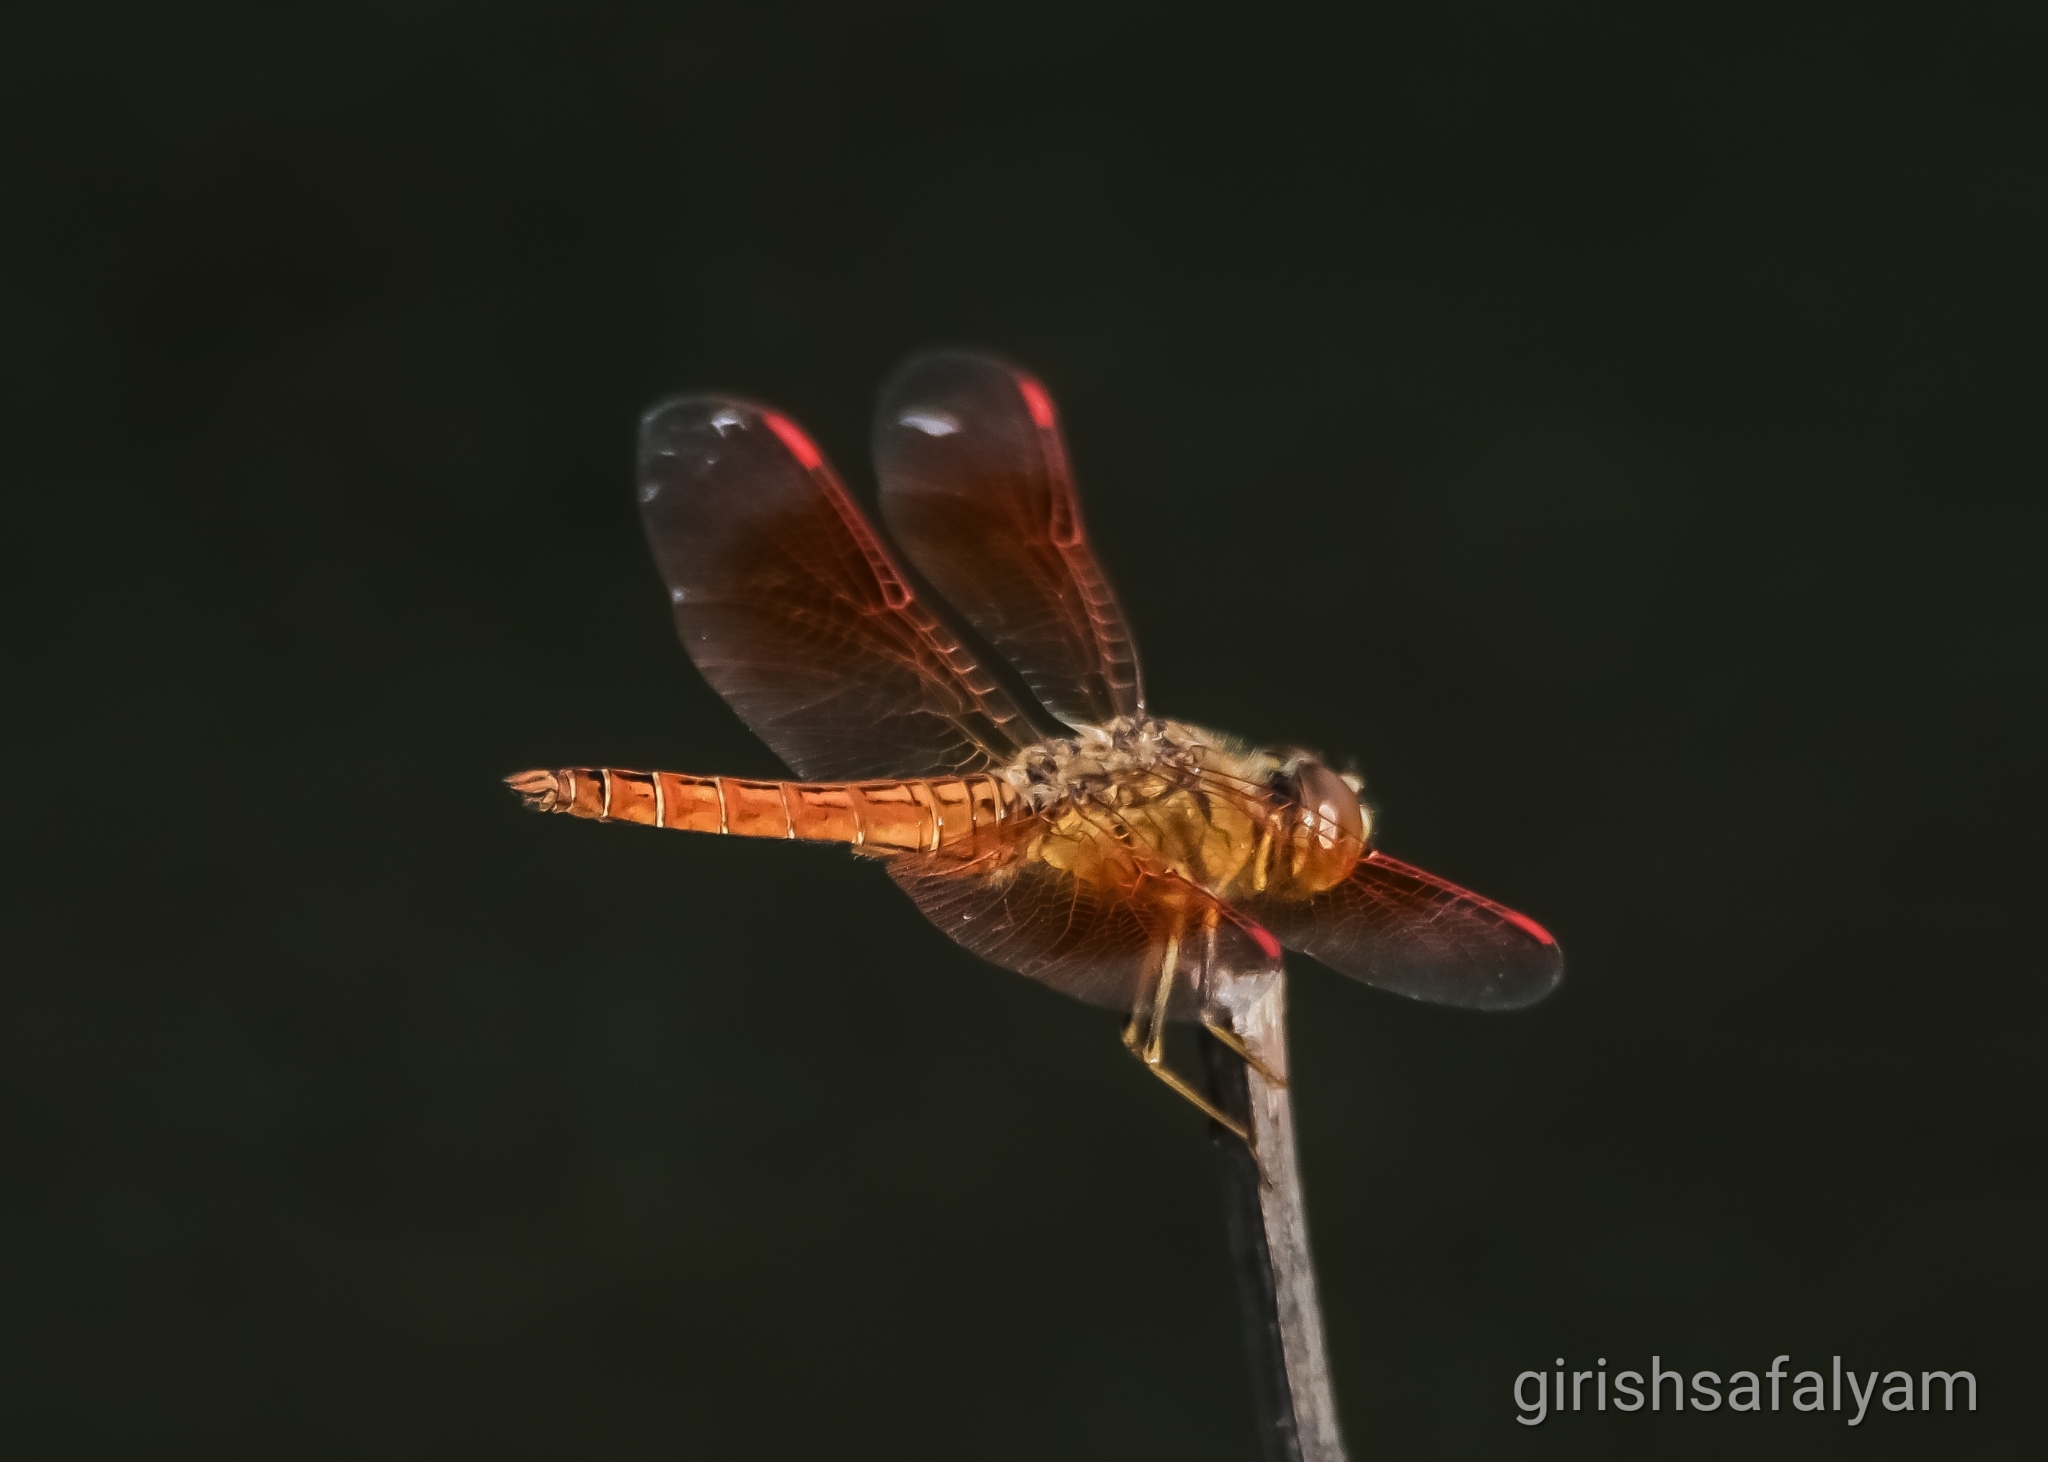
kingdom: Animalia
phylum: Arthropoda
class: Insecta
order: Odonata
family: Libellulidae
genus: Brachythemis
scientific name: Brachythemis contaminata
